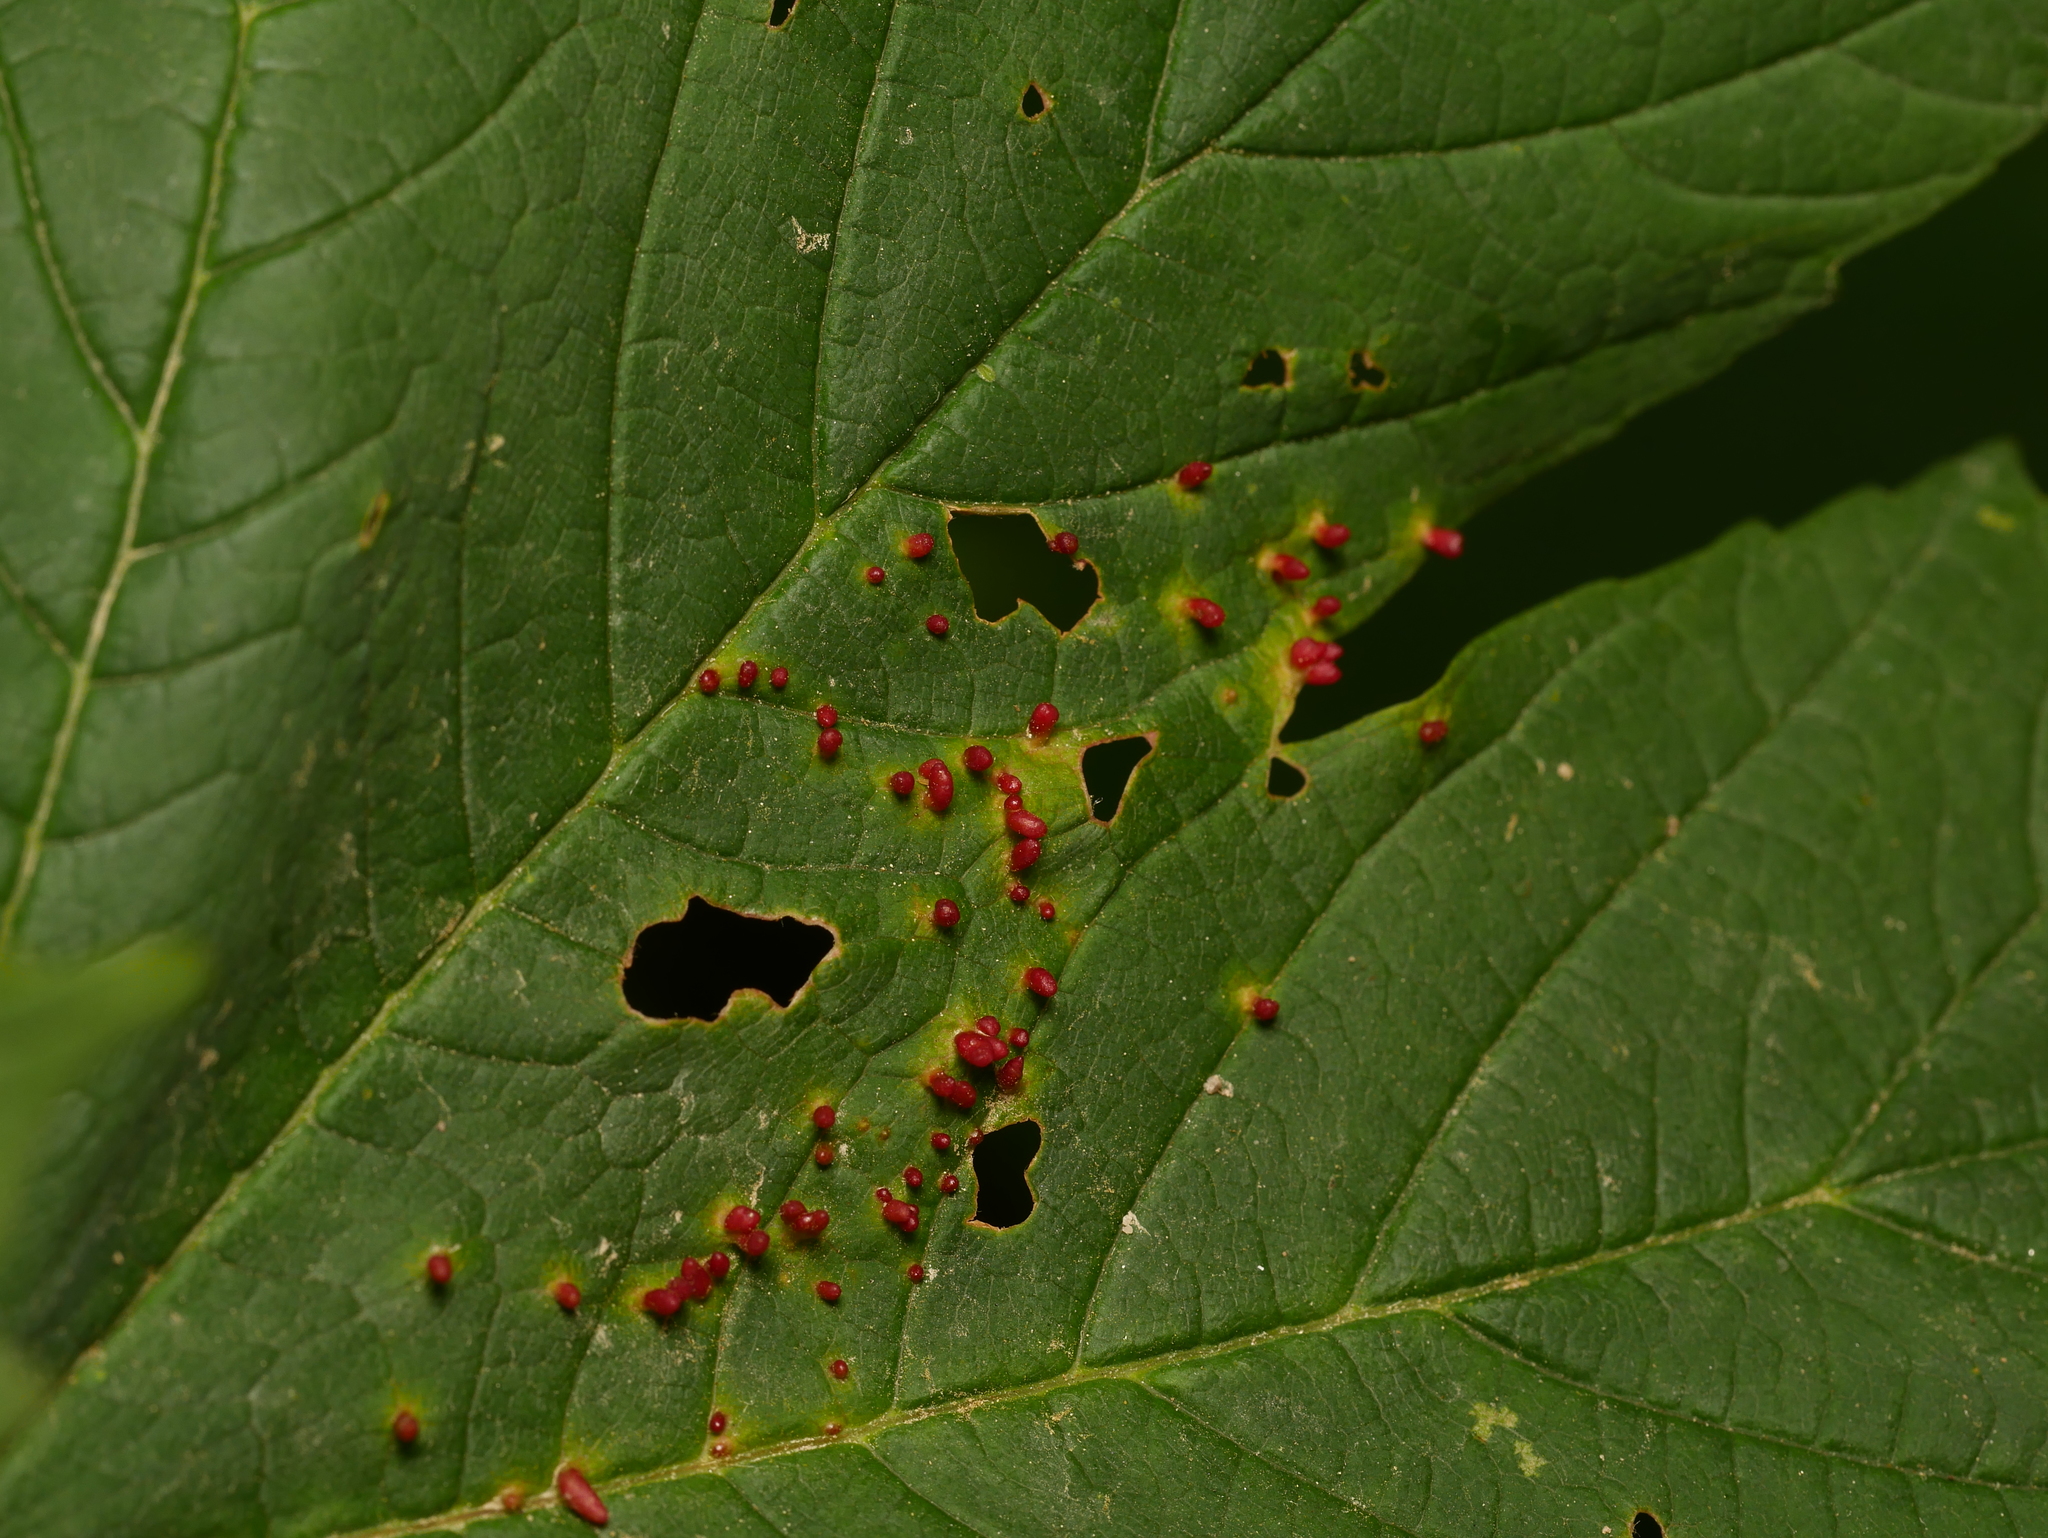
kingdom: Animalia
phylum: Arthropoda
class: Arachnida
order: Trombidiformes
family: Eriophyidae
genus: Aceria
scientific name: Aceria cephaloneus
